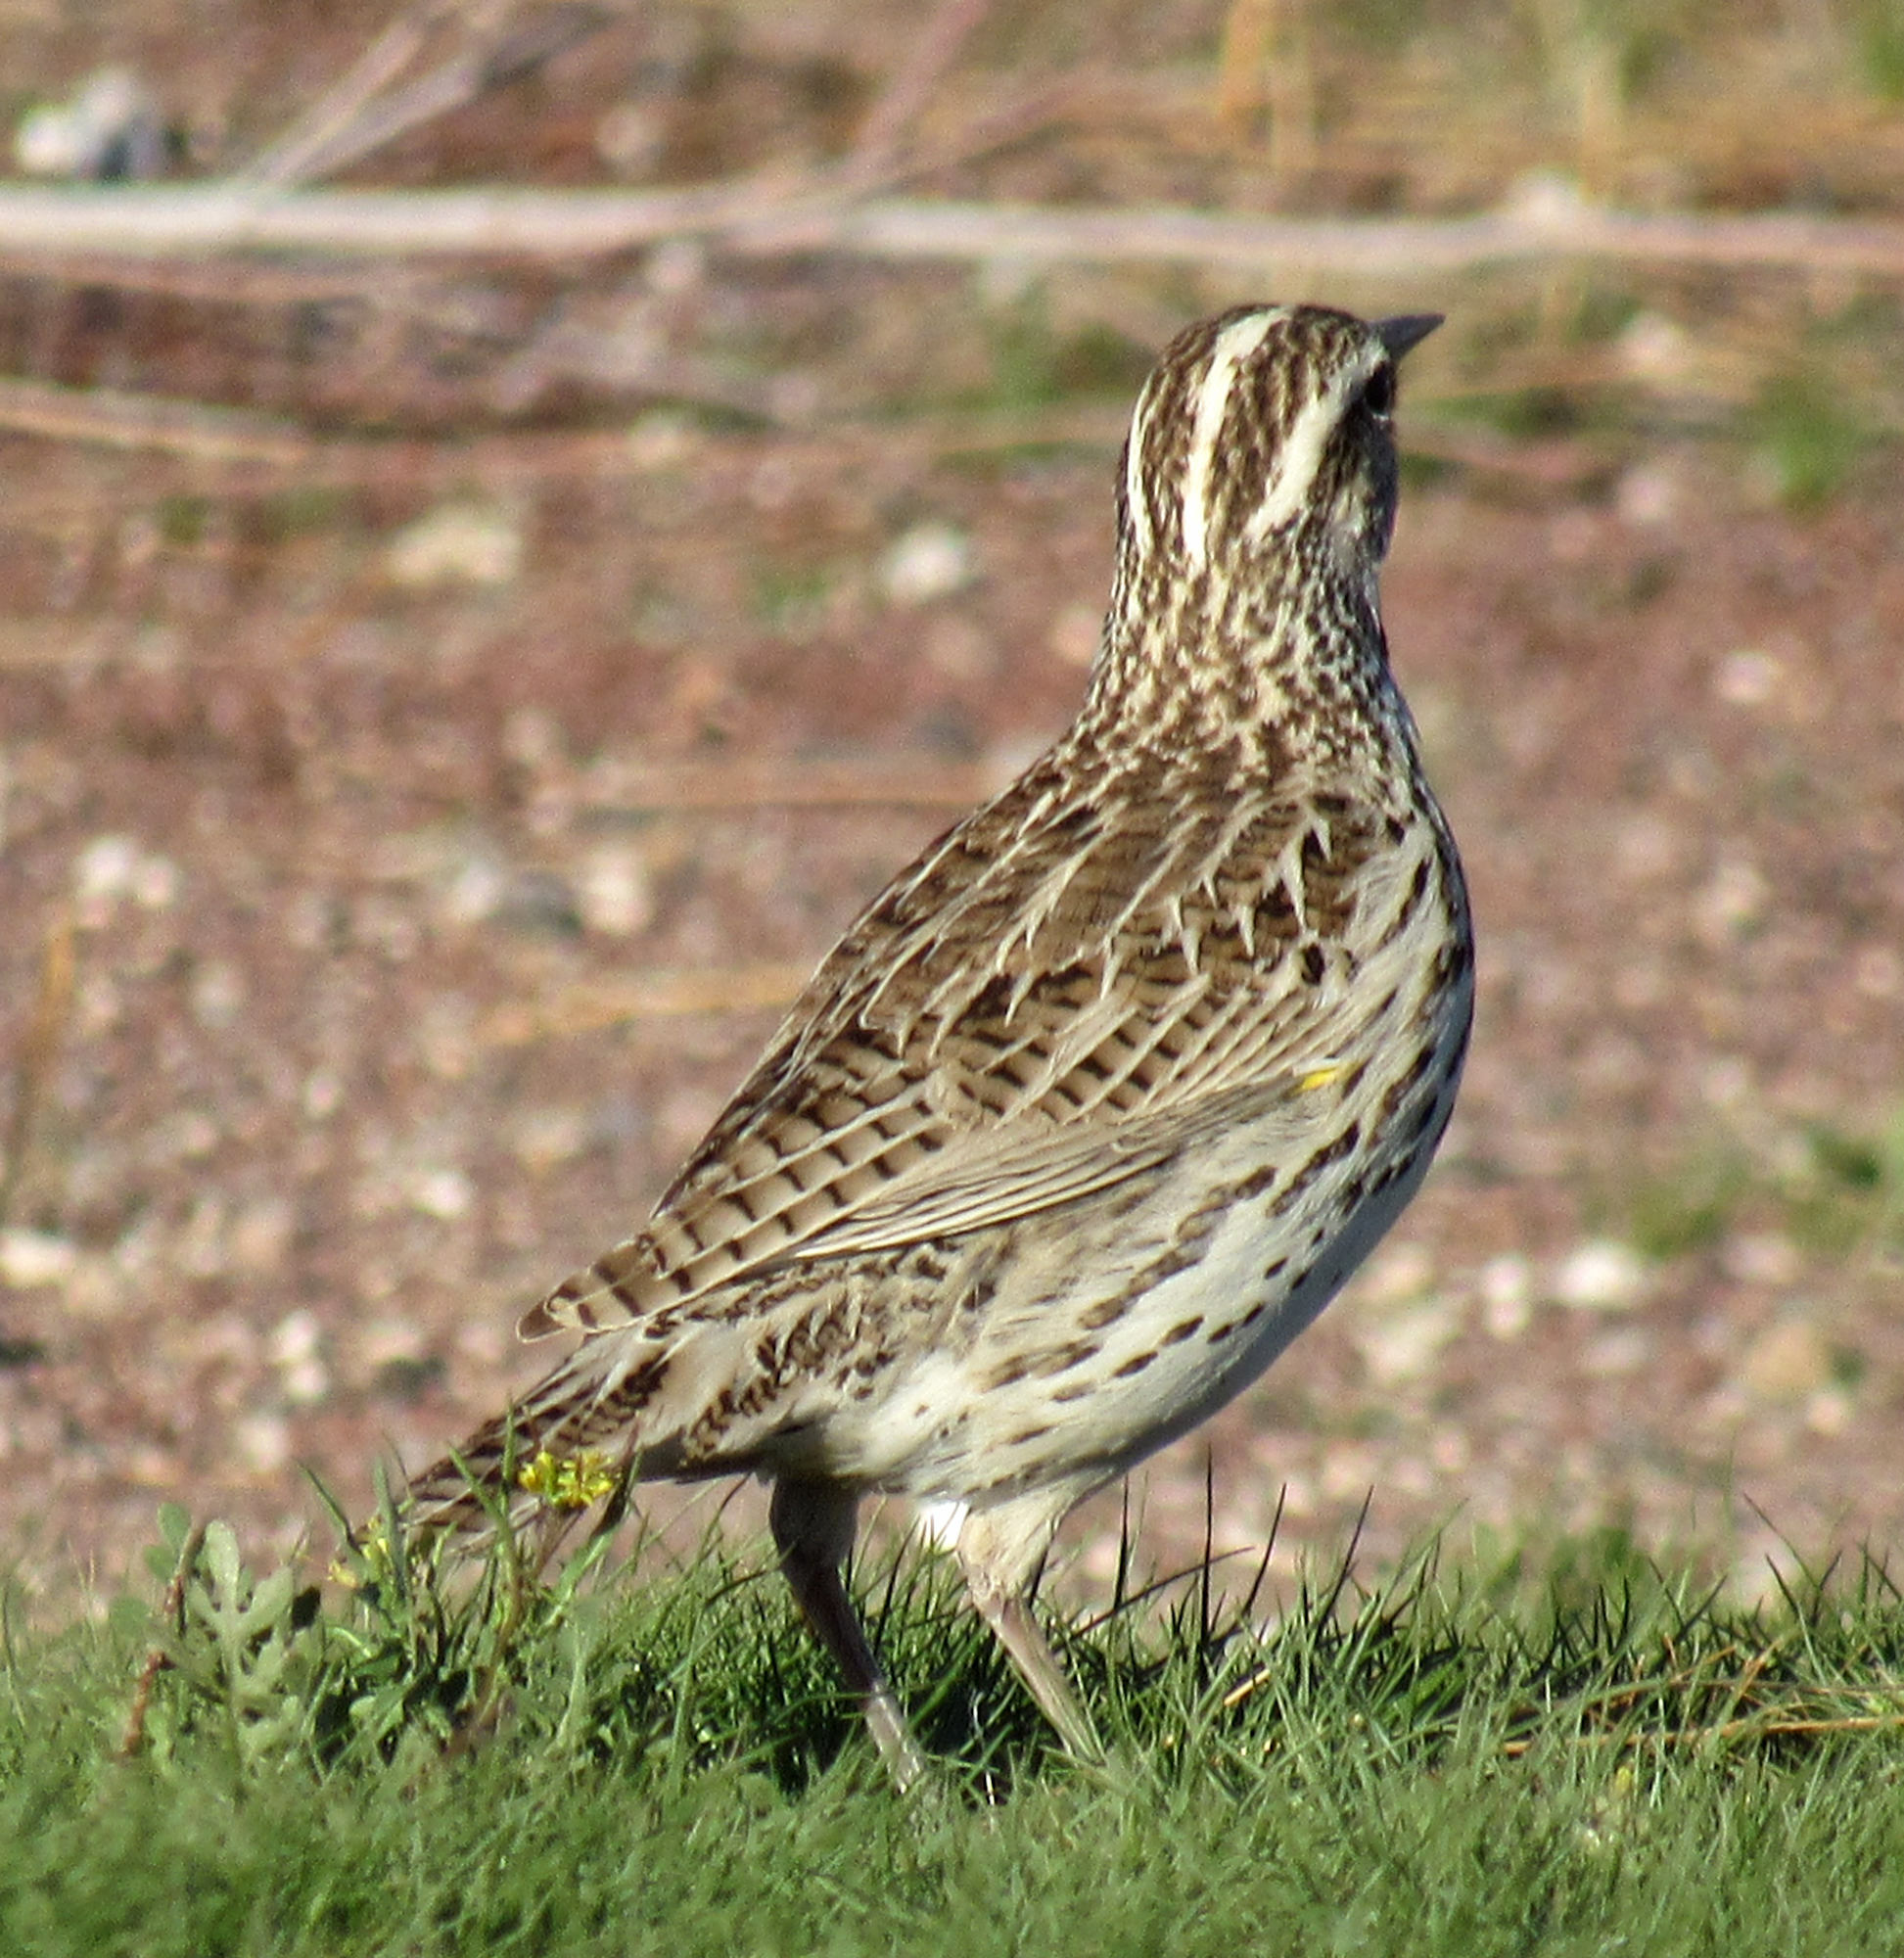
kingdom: Animalia
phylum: Chordata
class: Aves
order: Passeriformes
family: Icteridae
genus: Sturnella
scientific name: Sturnella neglecta
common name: Western meadowlark
